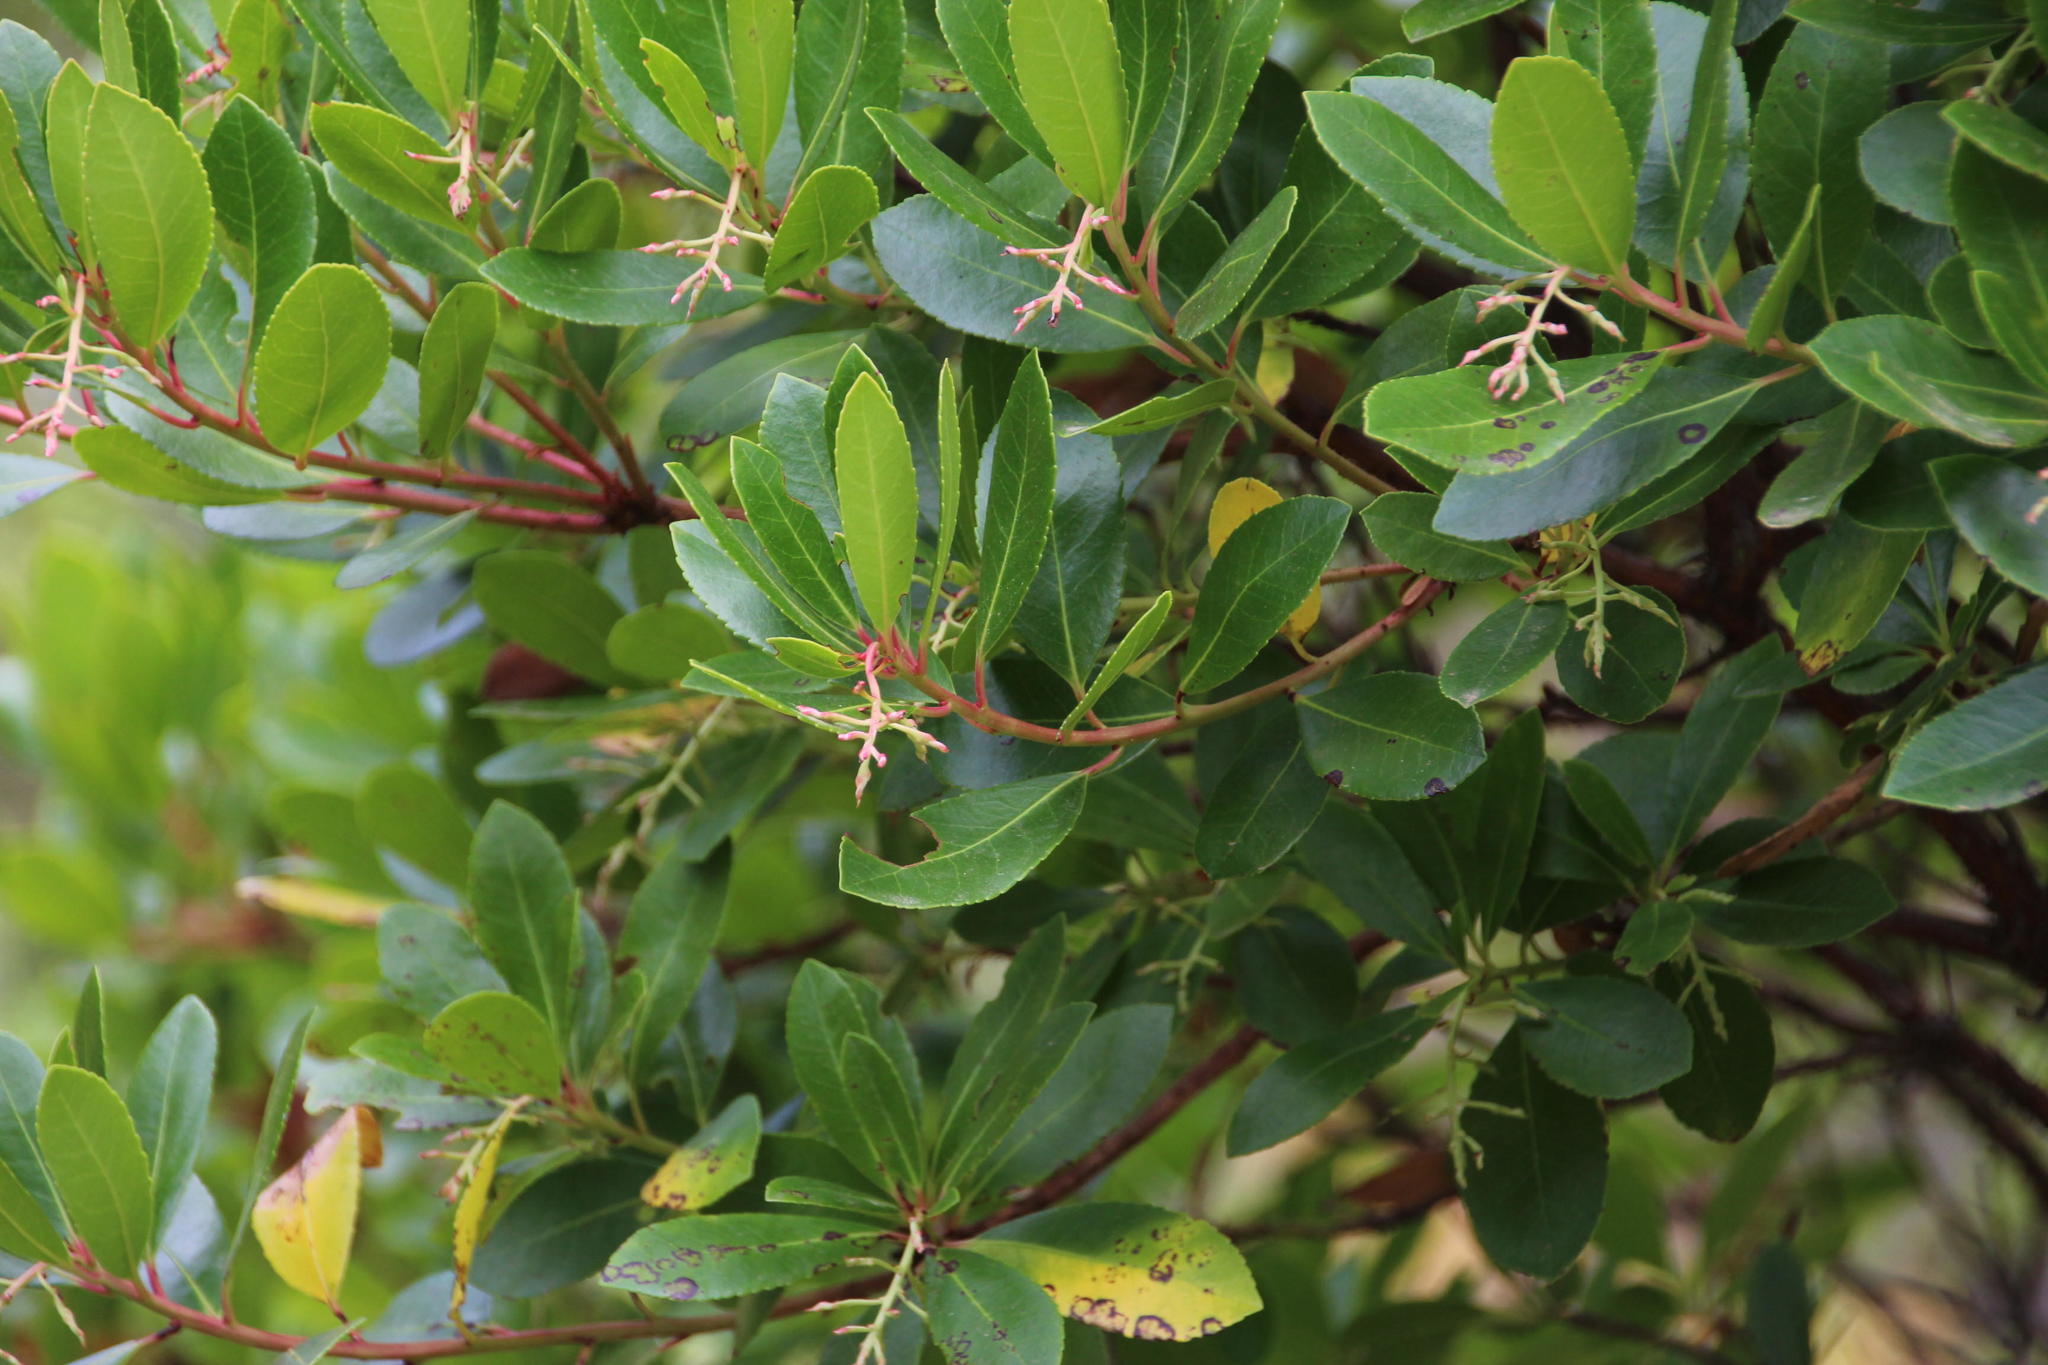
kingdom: Plantae
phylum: Tracheophyta
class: Magnoliopsida
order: Ericales
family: Ericaceae
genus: Arbutus
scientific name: Arbutus unedo
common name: Strawberry-tree
